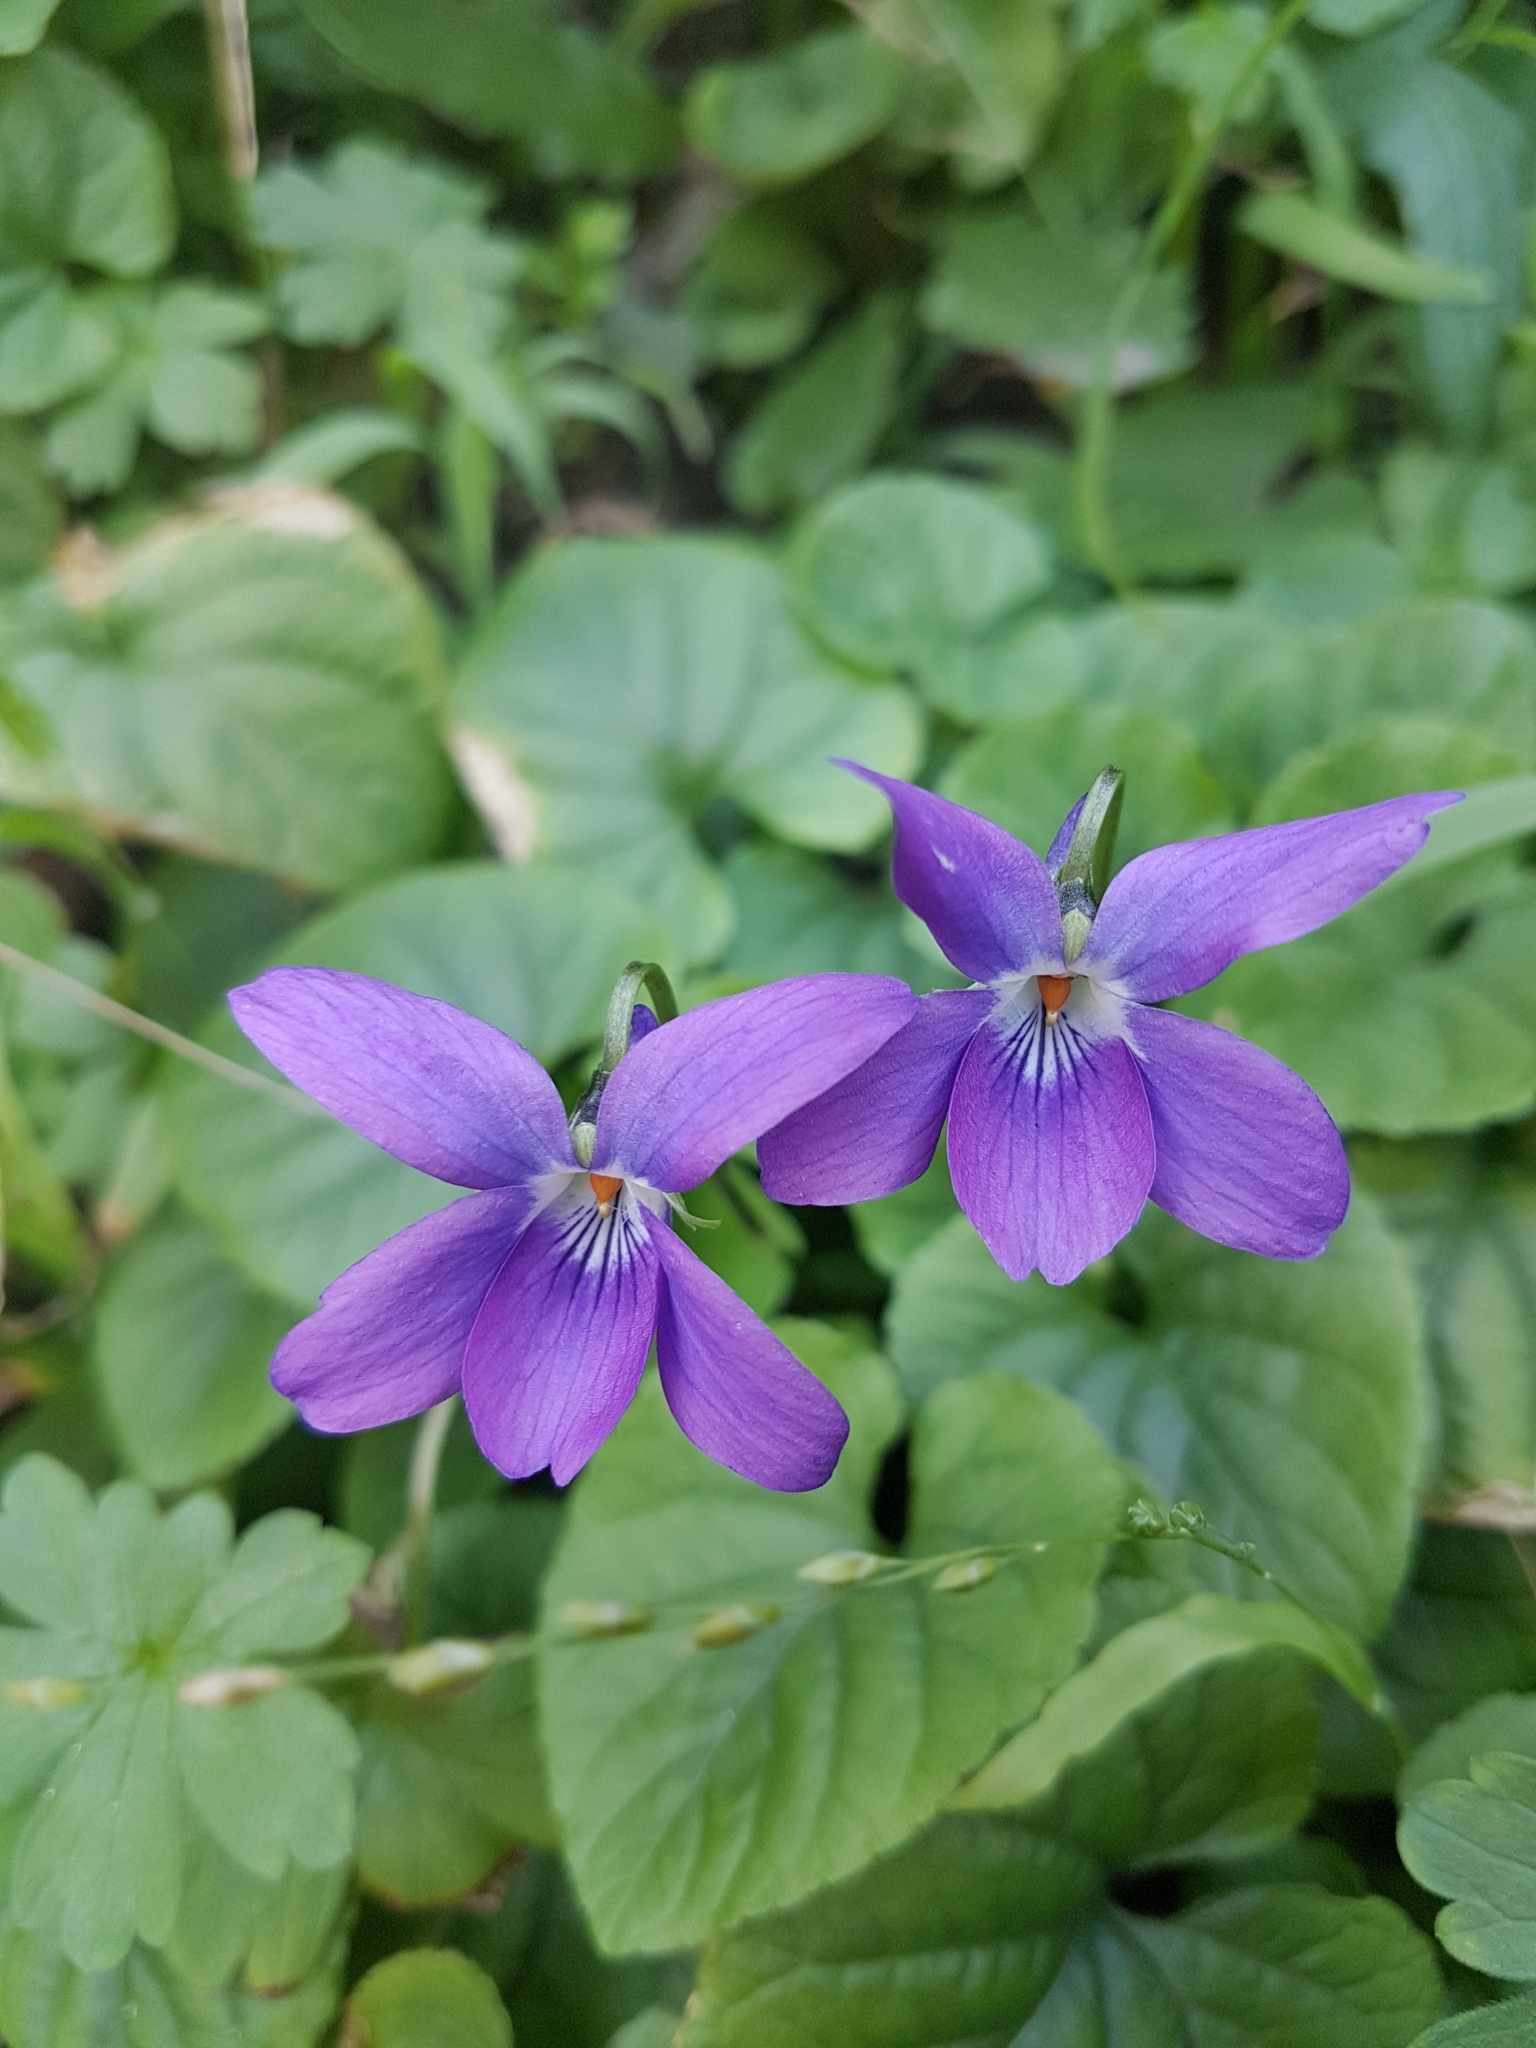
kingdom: Plantae
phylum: Tracheophyta
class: Magnoliopsida
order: Malpighiales
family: Violaceae
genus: Viola
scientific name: Viola odorata
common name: Sweet violet
